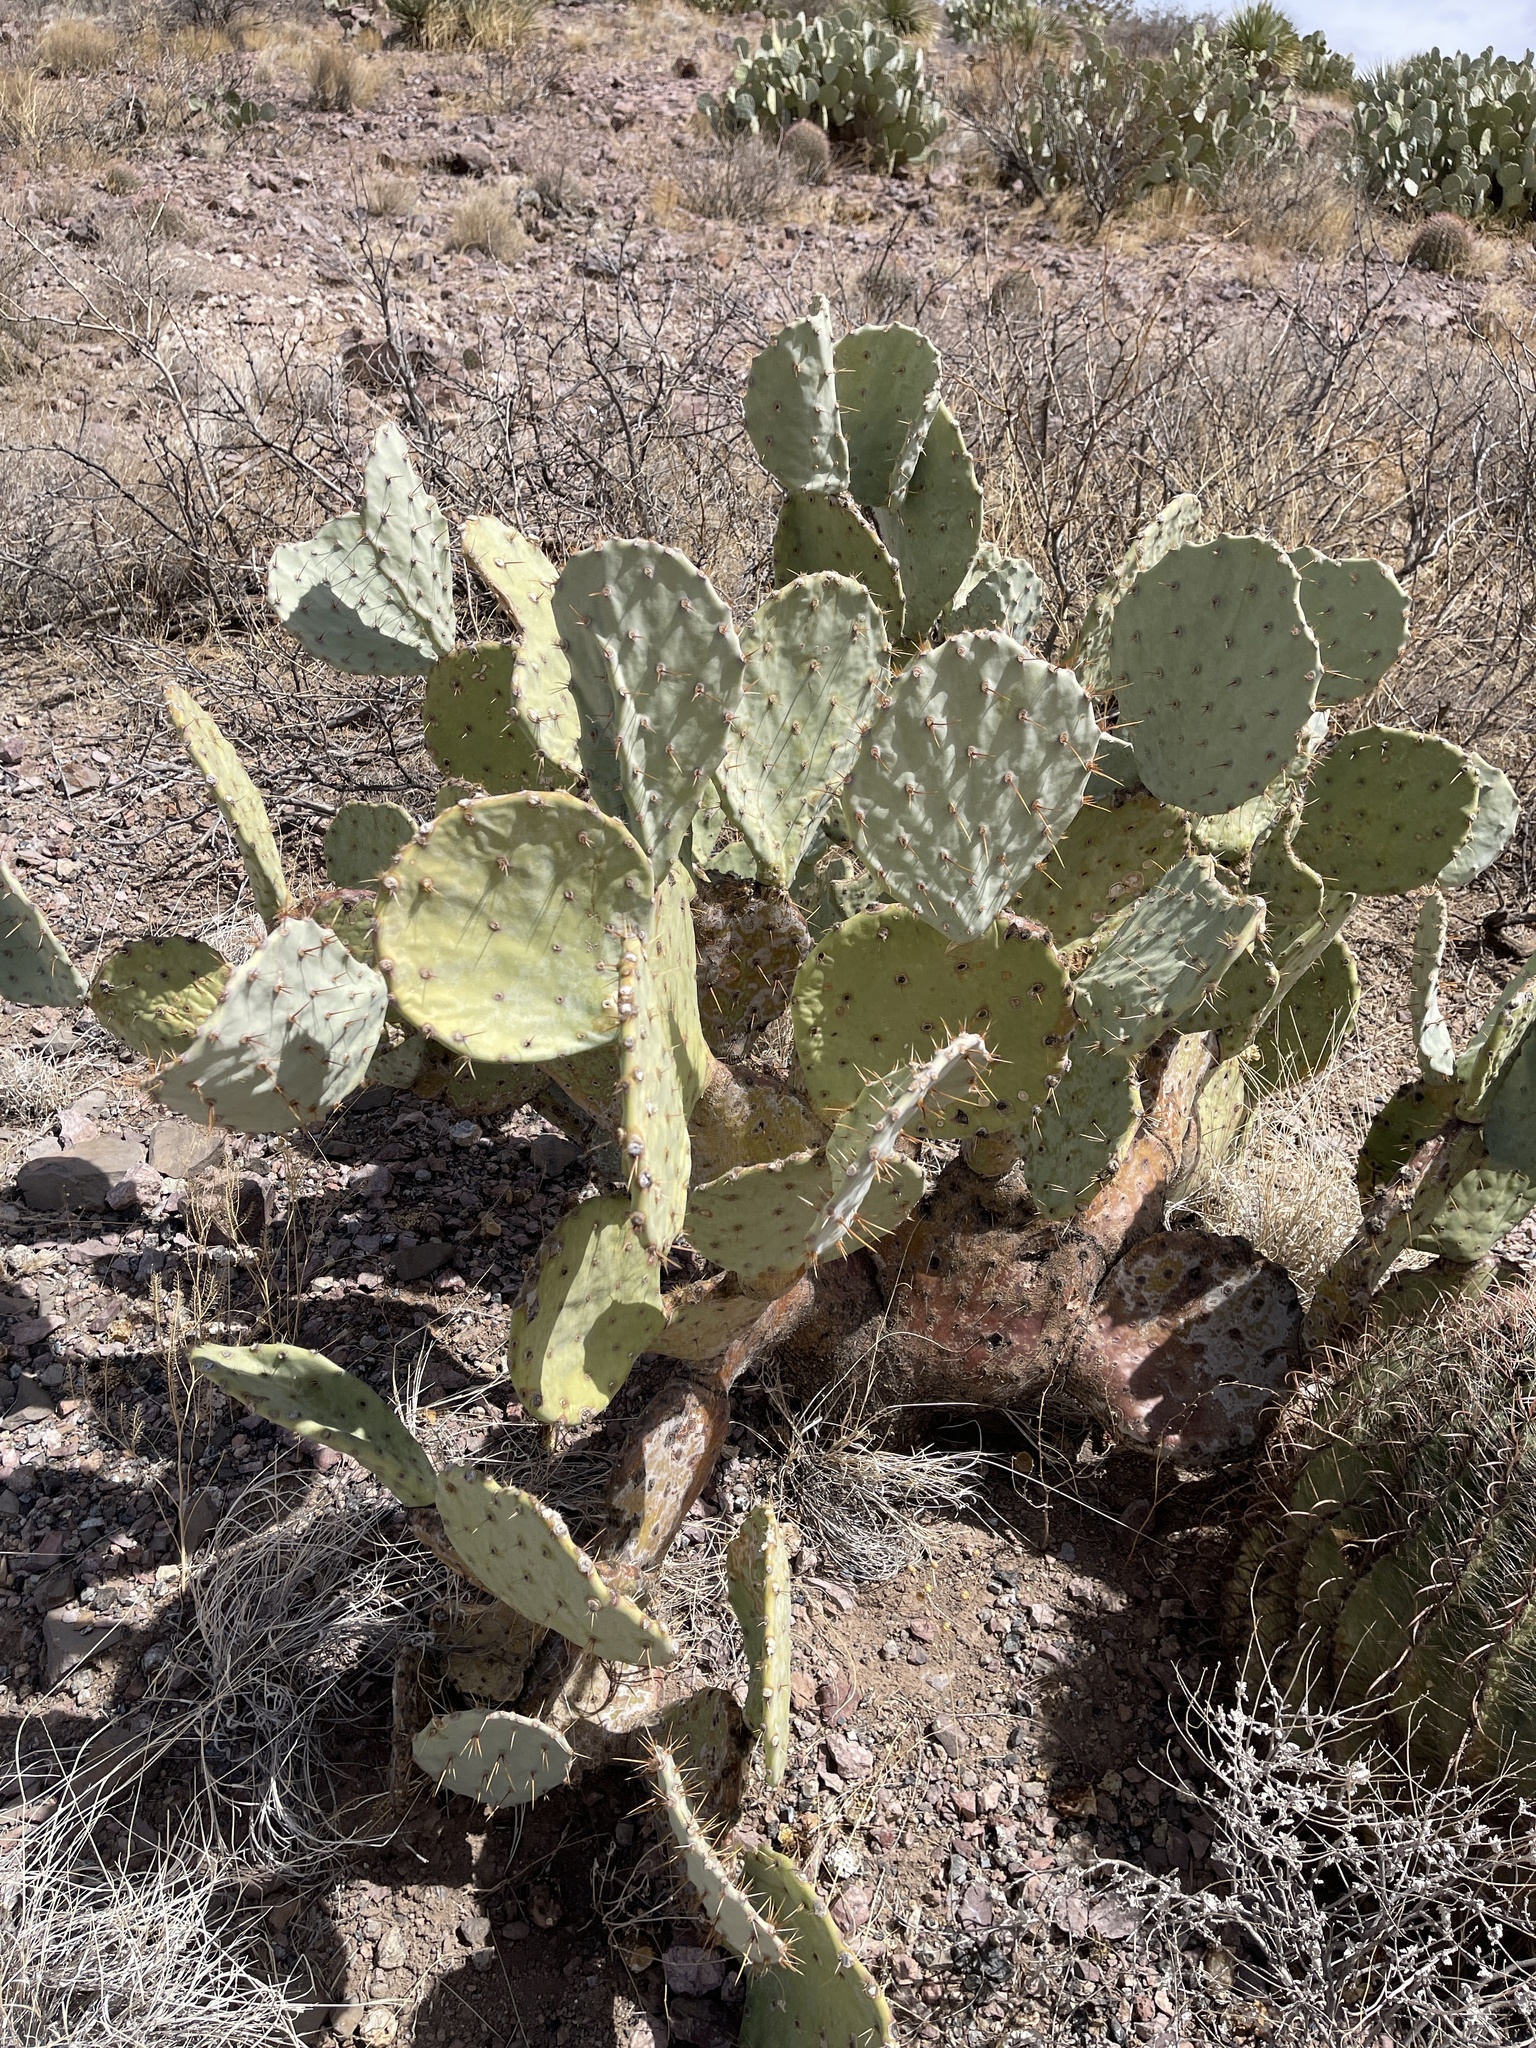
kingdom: Plantae
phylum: Tracheophyta
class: Magnoliopsida
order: Caryophyllales
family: Cactaceae
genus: Opuntia
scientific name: Opuntia engelmannii
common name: Cactus-apple
